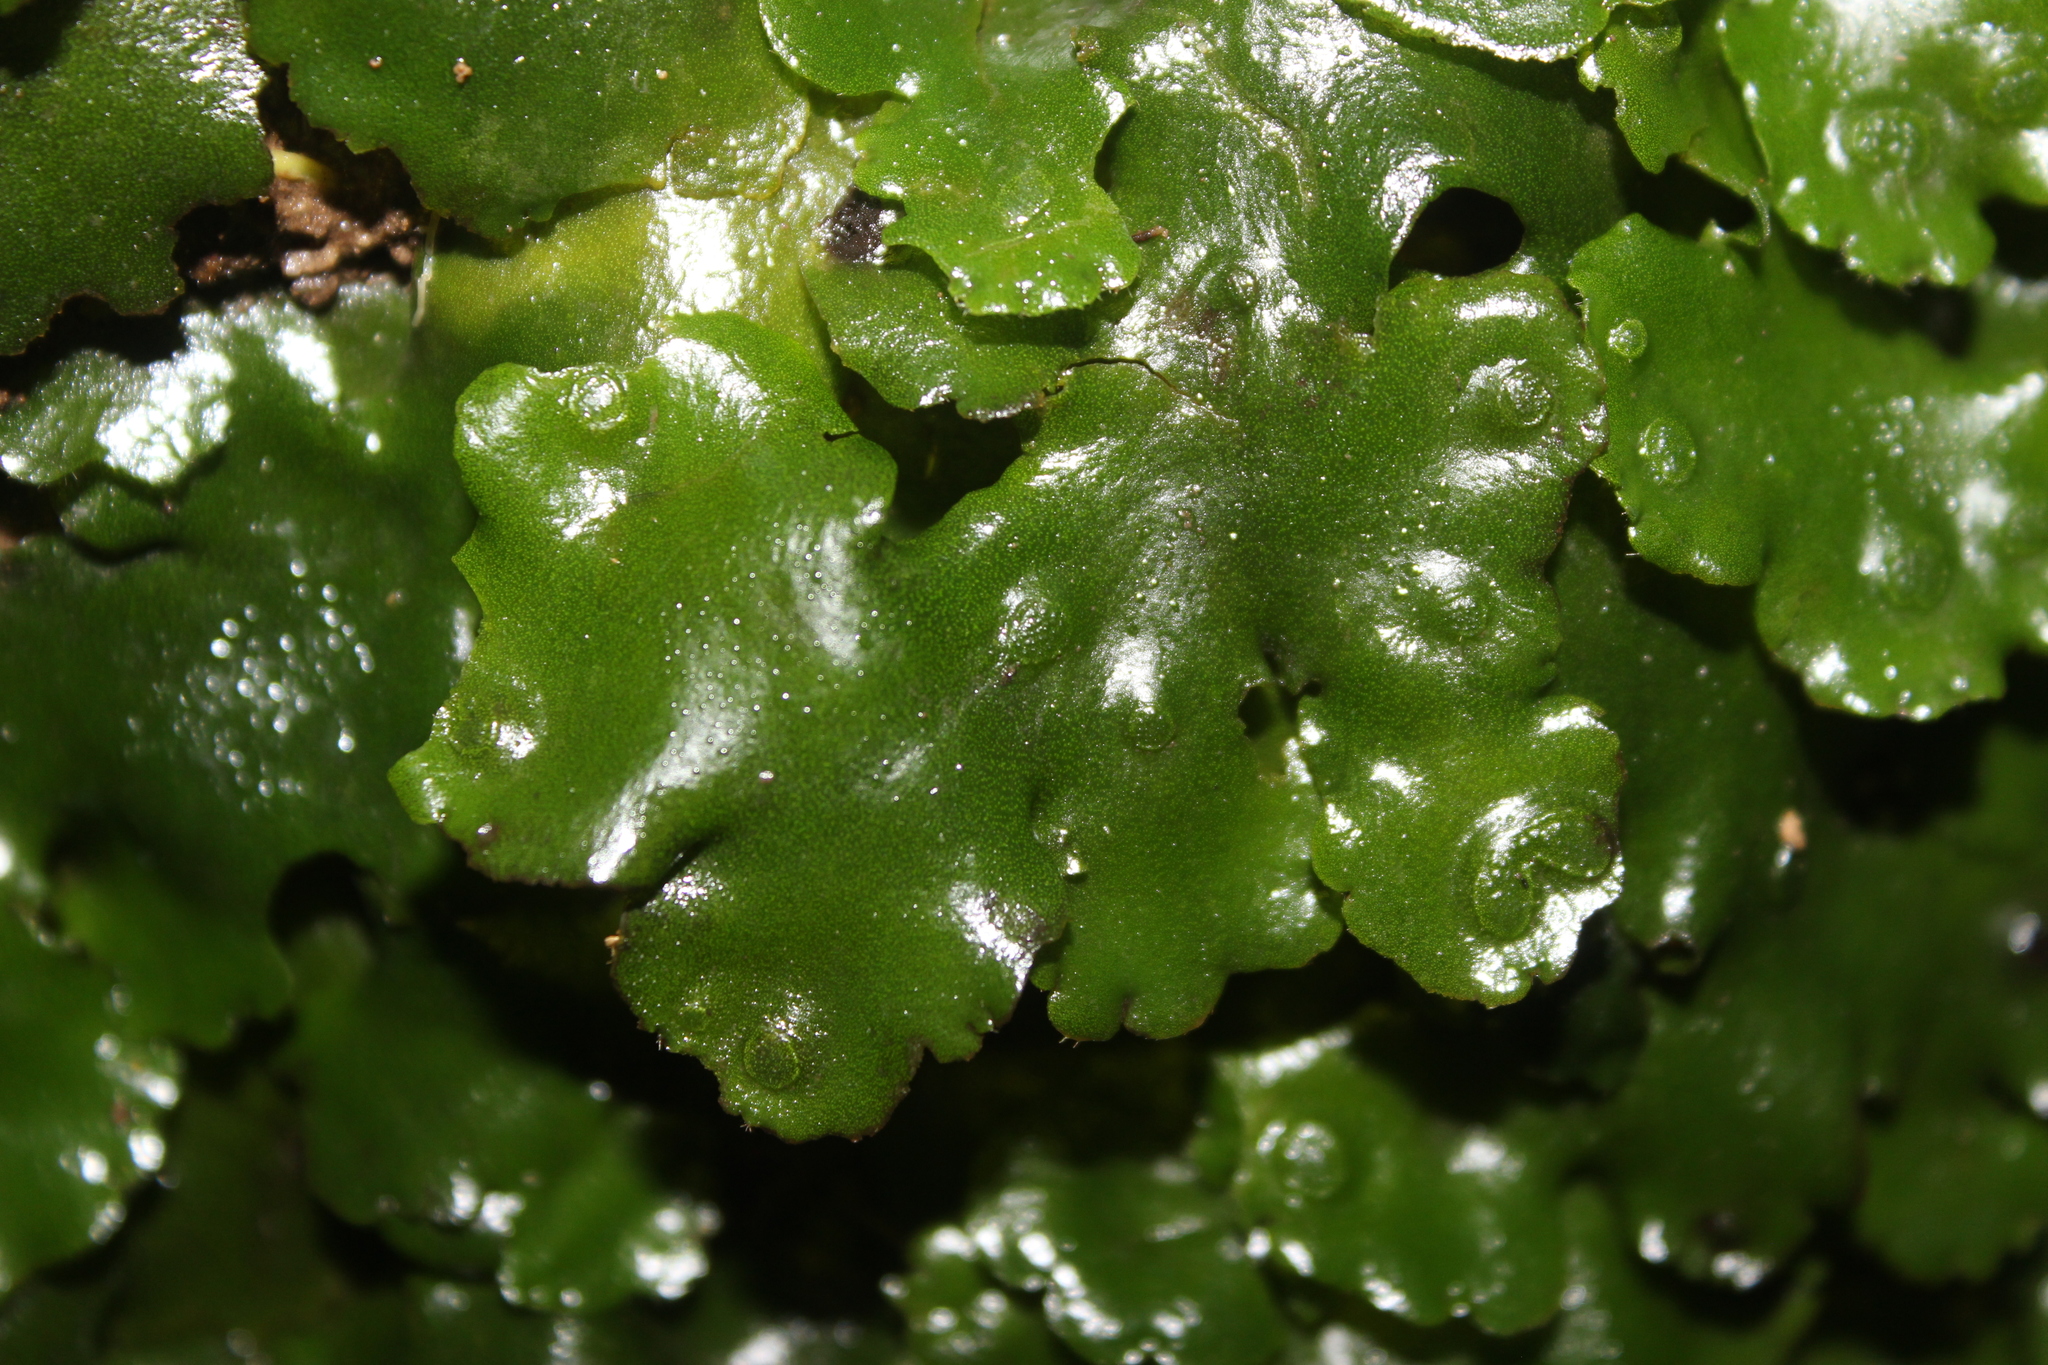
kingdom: Plantae
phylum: Marchantiophyta
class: Marchantiopsida
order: Marchantiales
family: Monocleaceae
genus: Monoclea
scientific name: Monoclea forsteri
